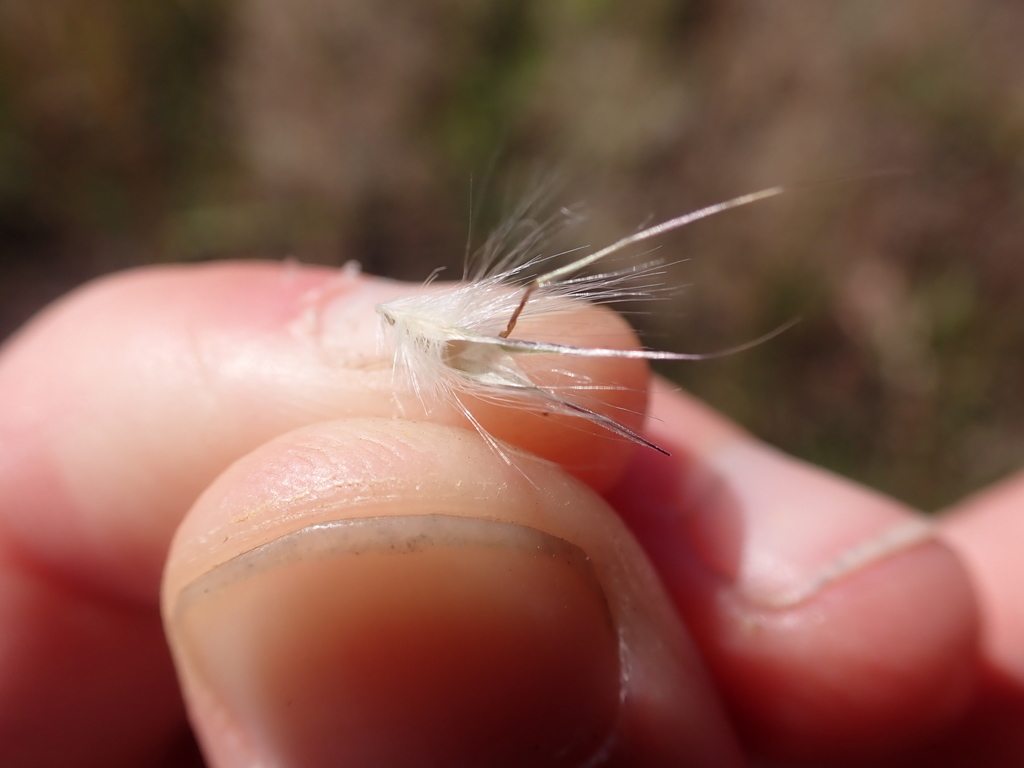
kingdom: Plantae
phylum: Tracheophyta
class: Liliopsida
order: Poales
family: Poaceae
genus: Rytidosperma
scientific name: Rytidosperma fulvum
